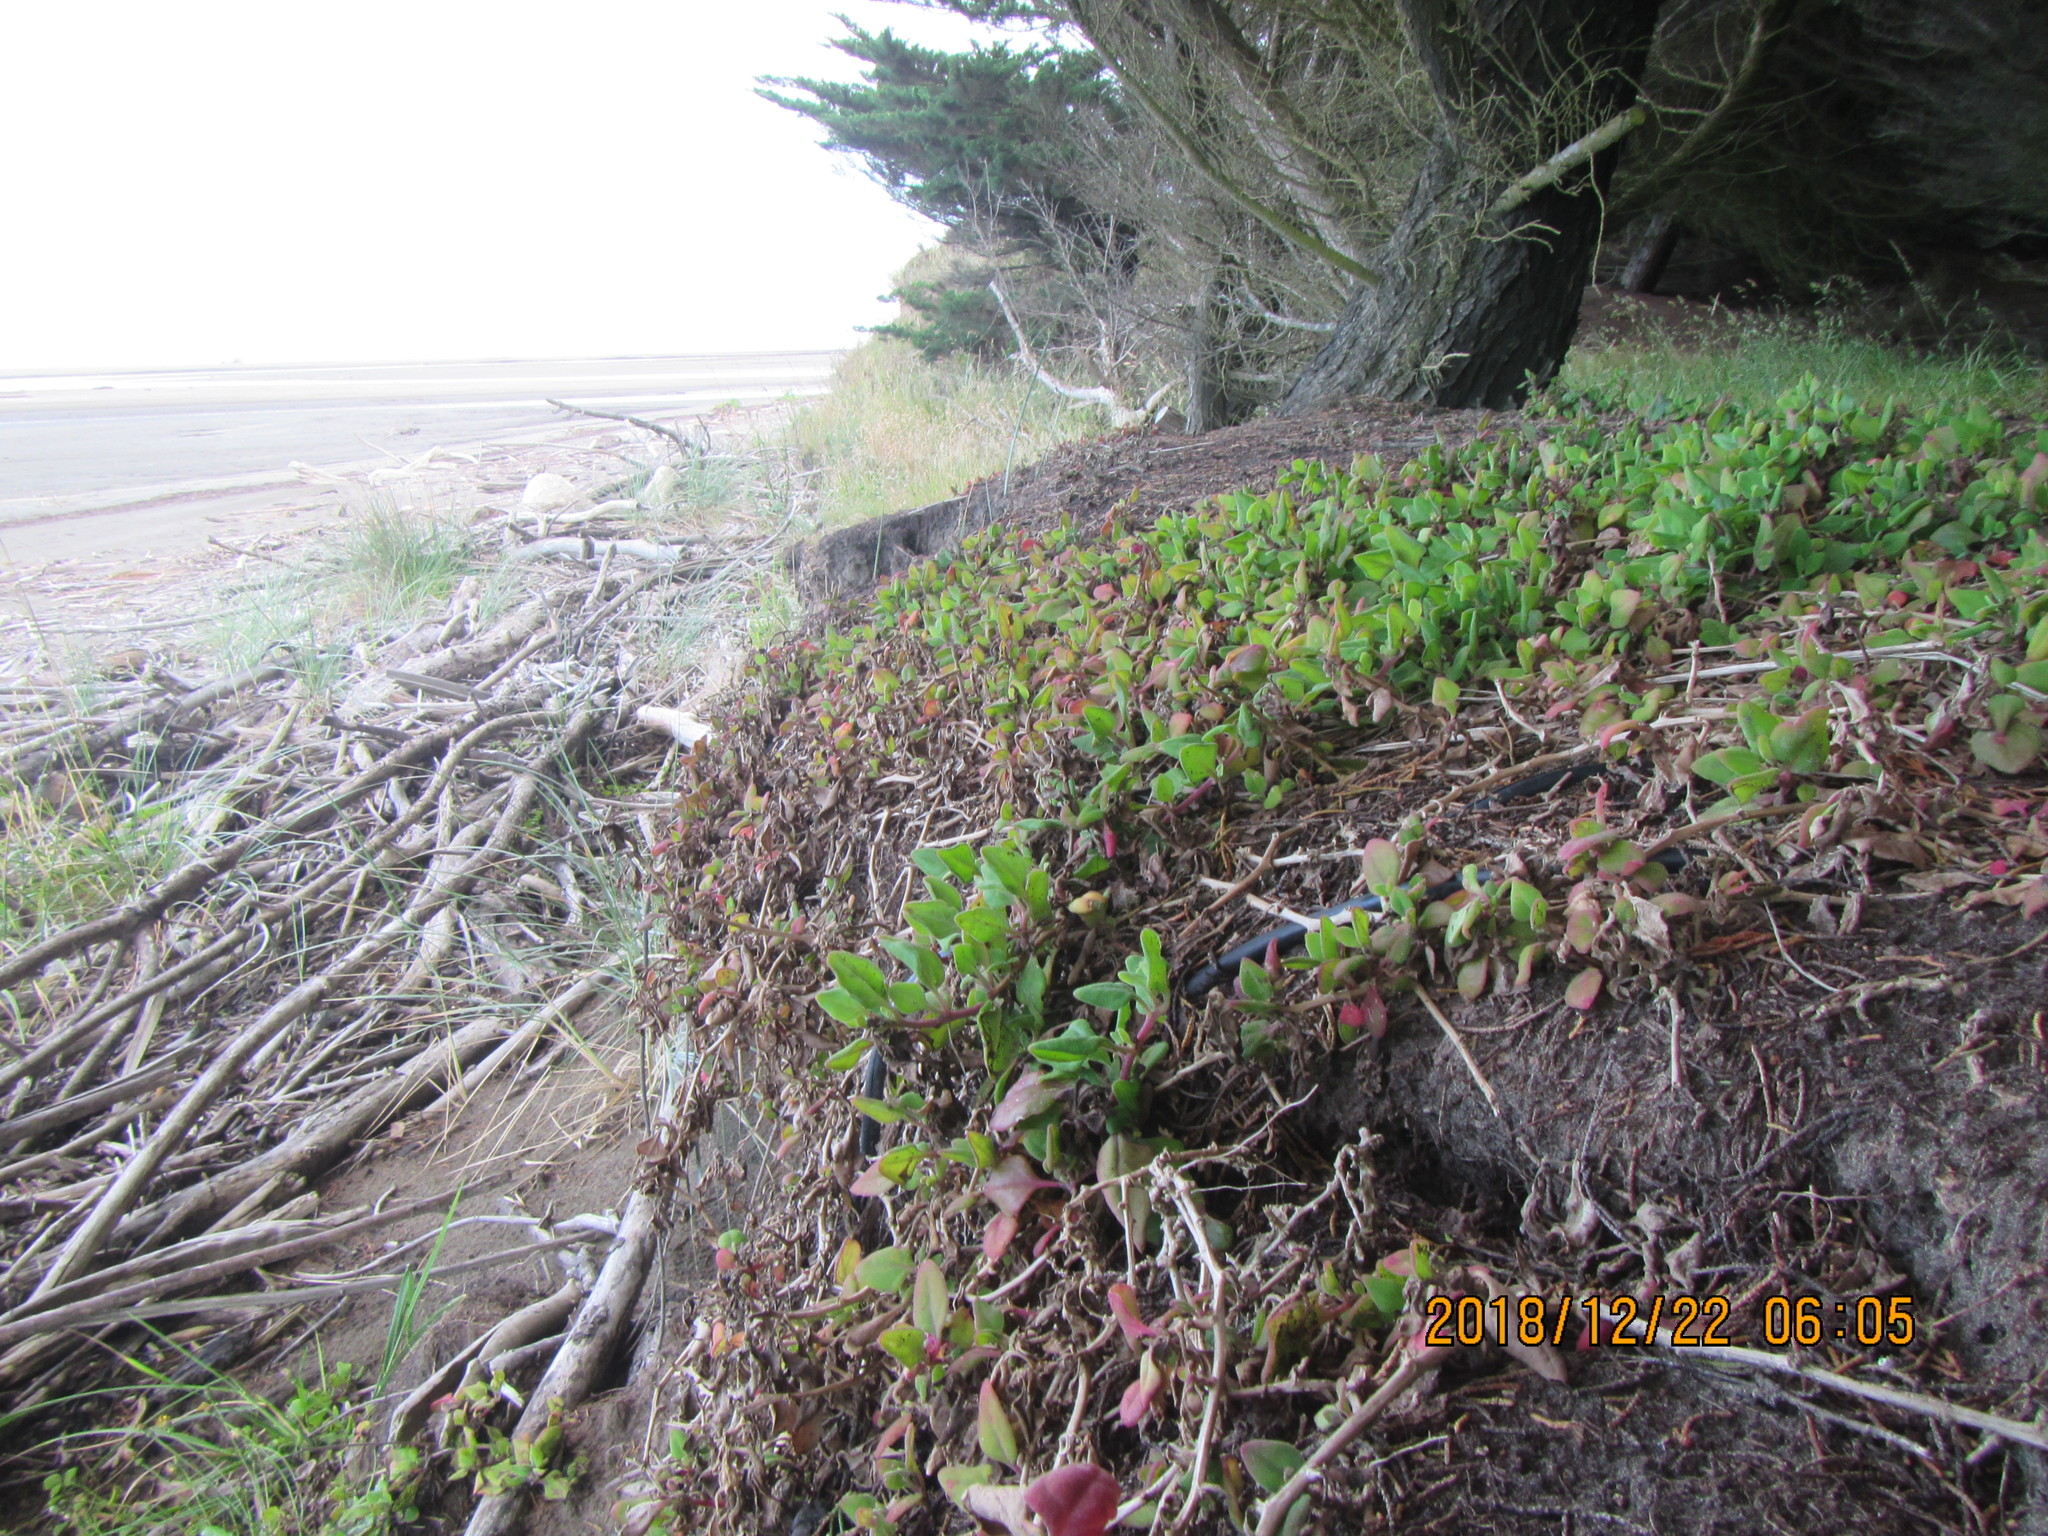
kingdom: Plantae
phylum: Tracheophyta
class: Magnoliopsida
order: Caryophyllales
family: Aizoaceae
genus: Tetragonia
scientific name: Tetragonia implexicoma
